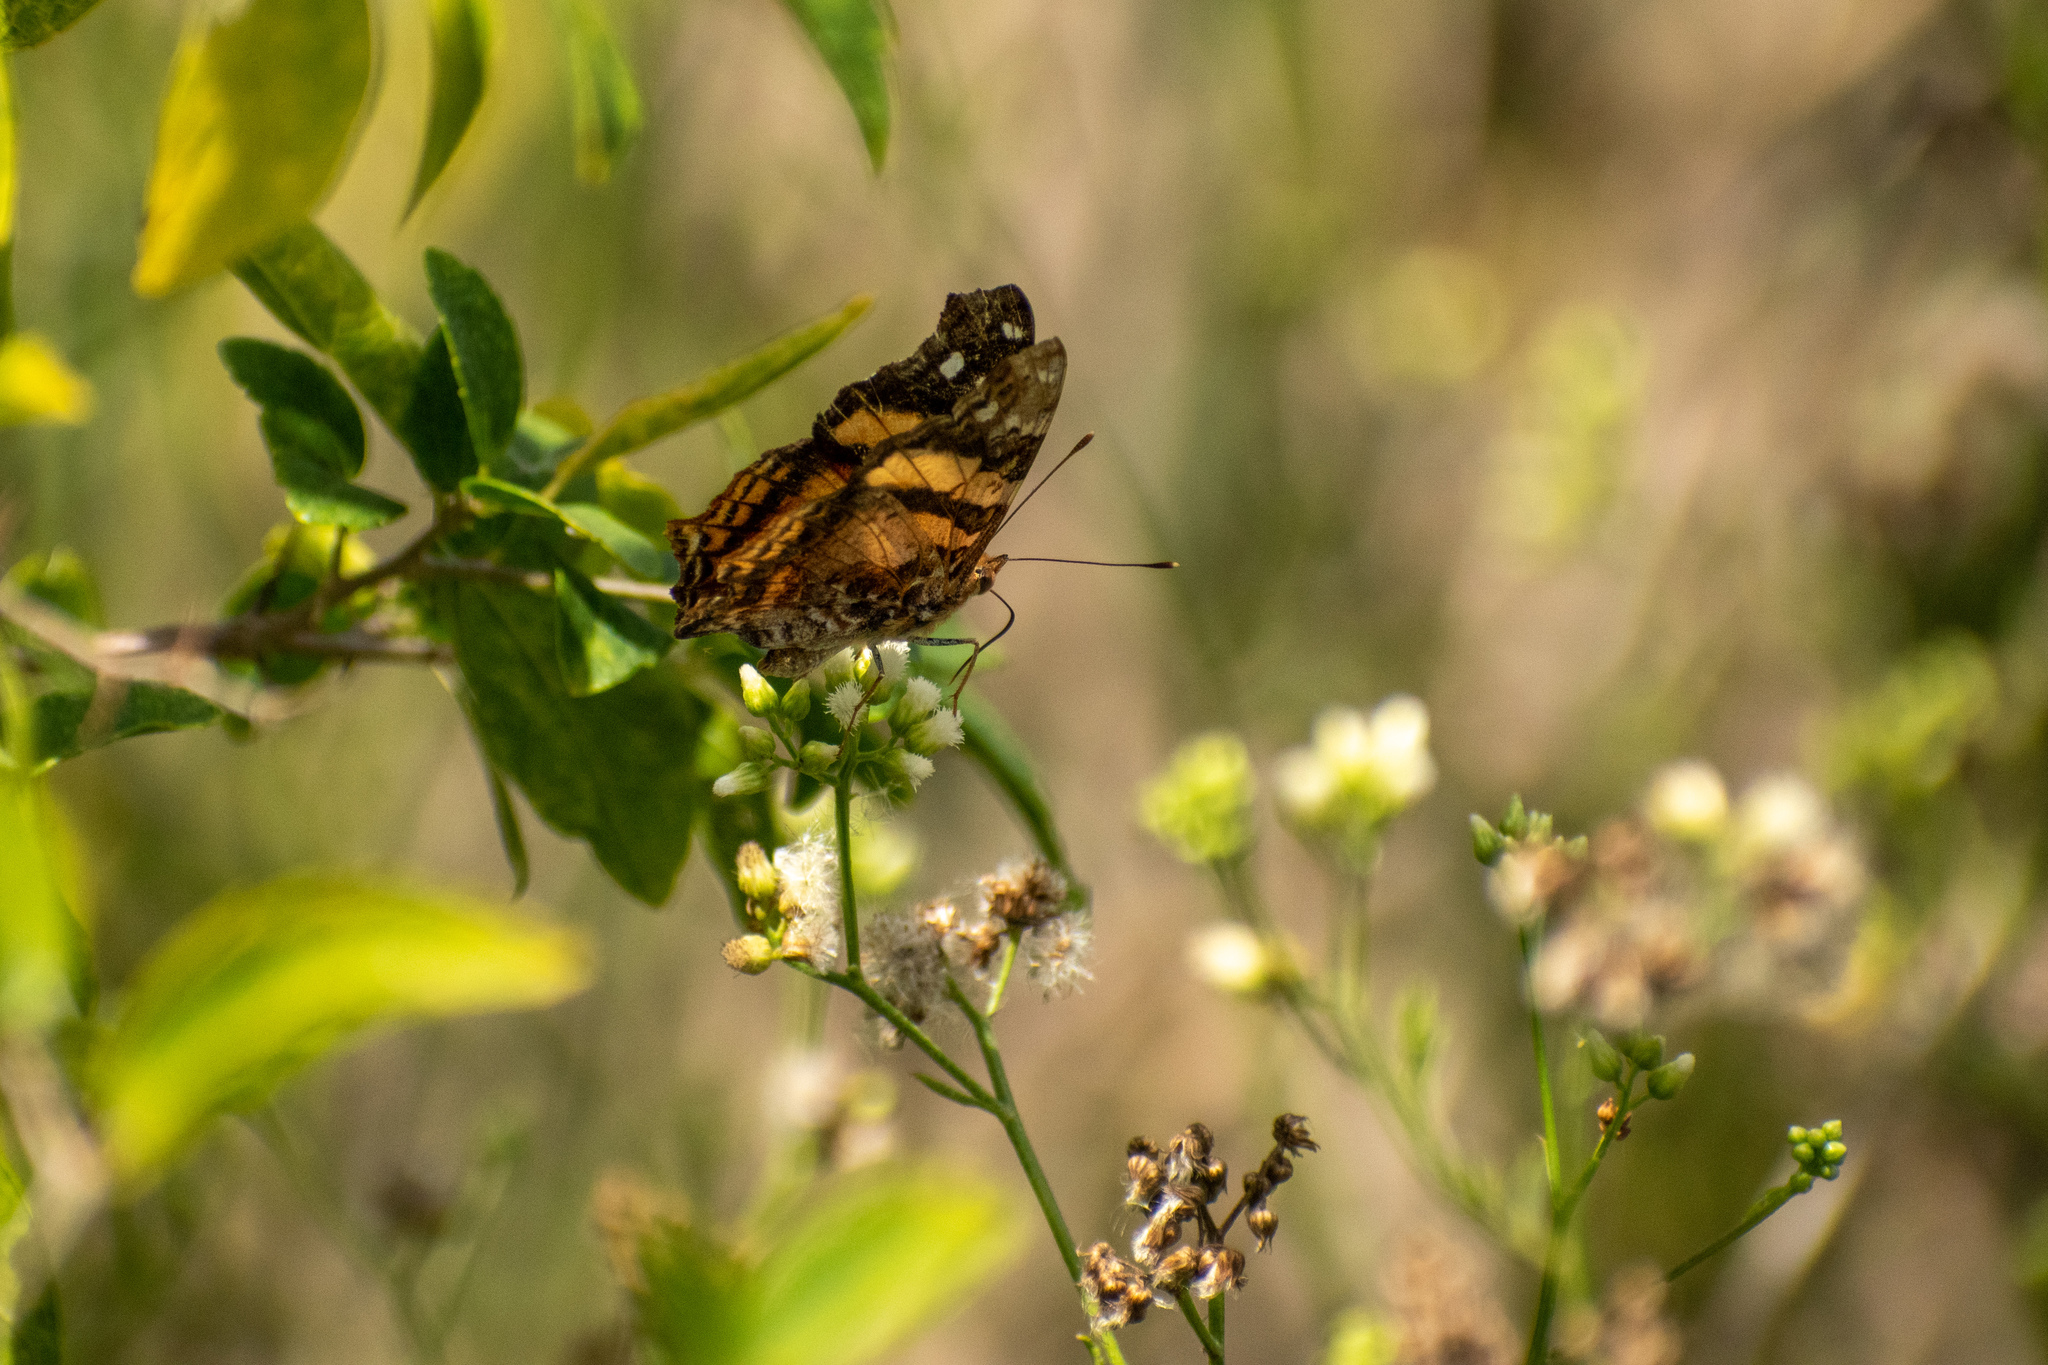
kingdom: Animalia
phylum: Arthropoda
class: Insecta
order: Lepidoptera
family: Nymphalidae
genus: Hypanartia
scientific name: Hypanartia bella
